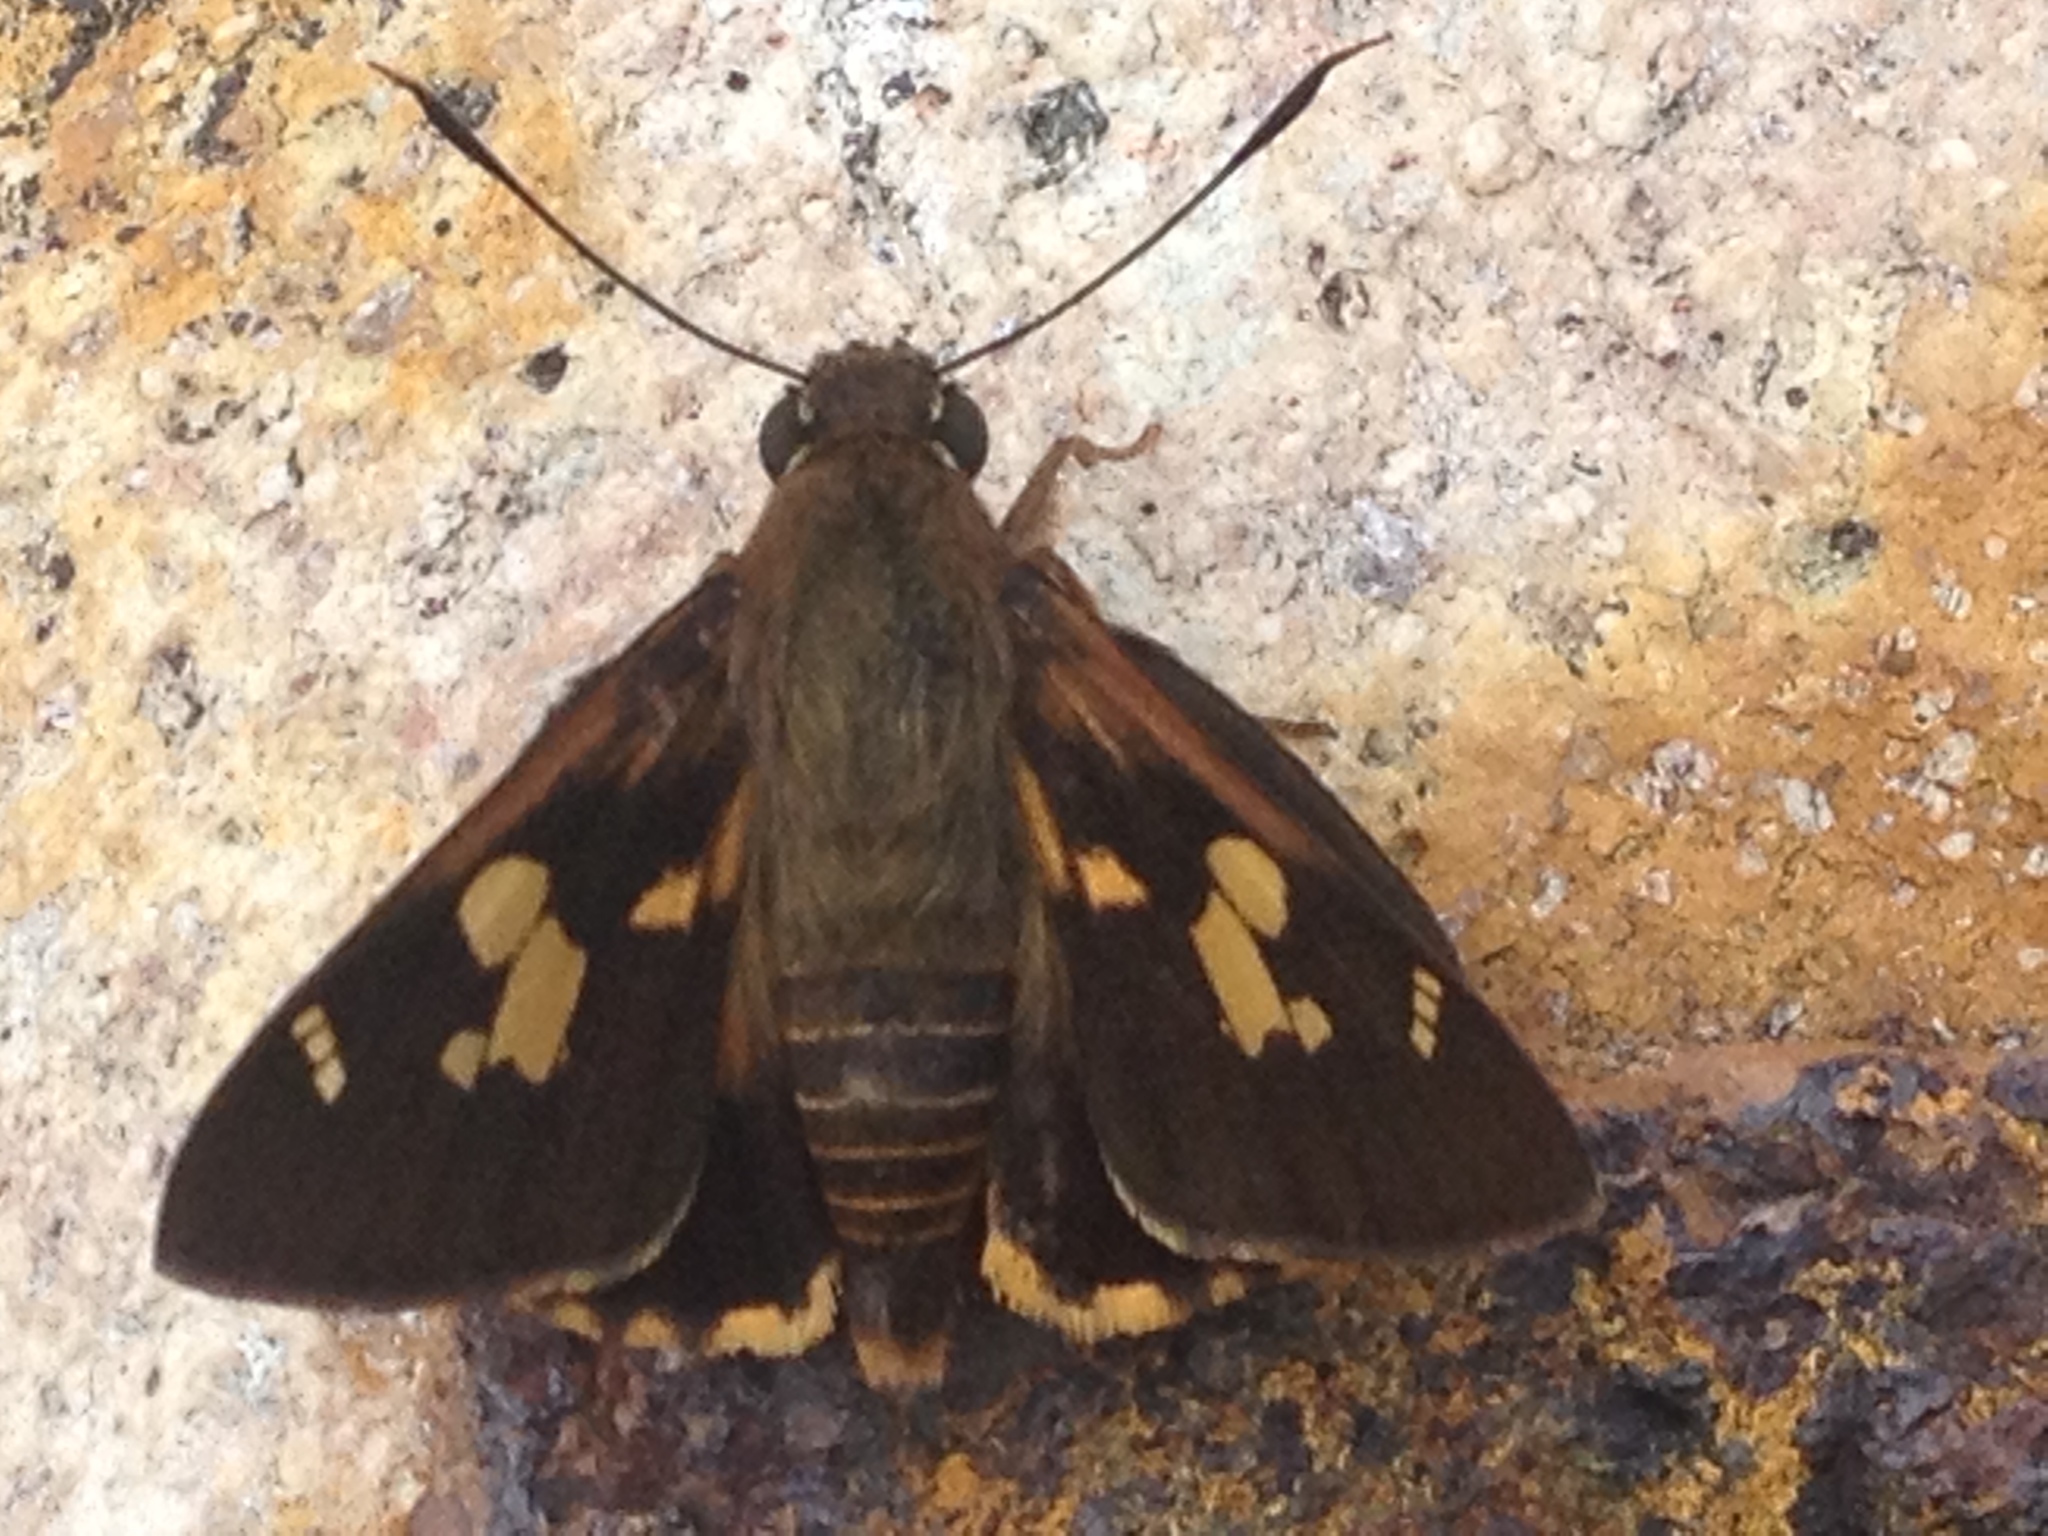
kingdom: Animalia
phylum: Arthropoda
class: Insecta
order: Lepidoptera
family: Hesperiidae
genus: Trapezites
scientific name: Trapezites symmomus
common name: Splendid ochre
